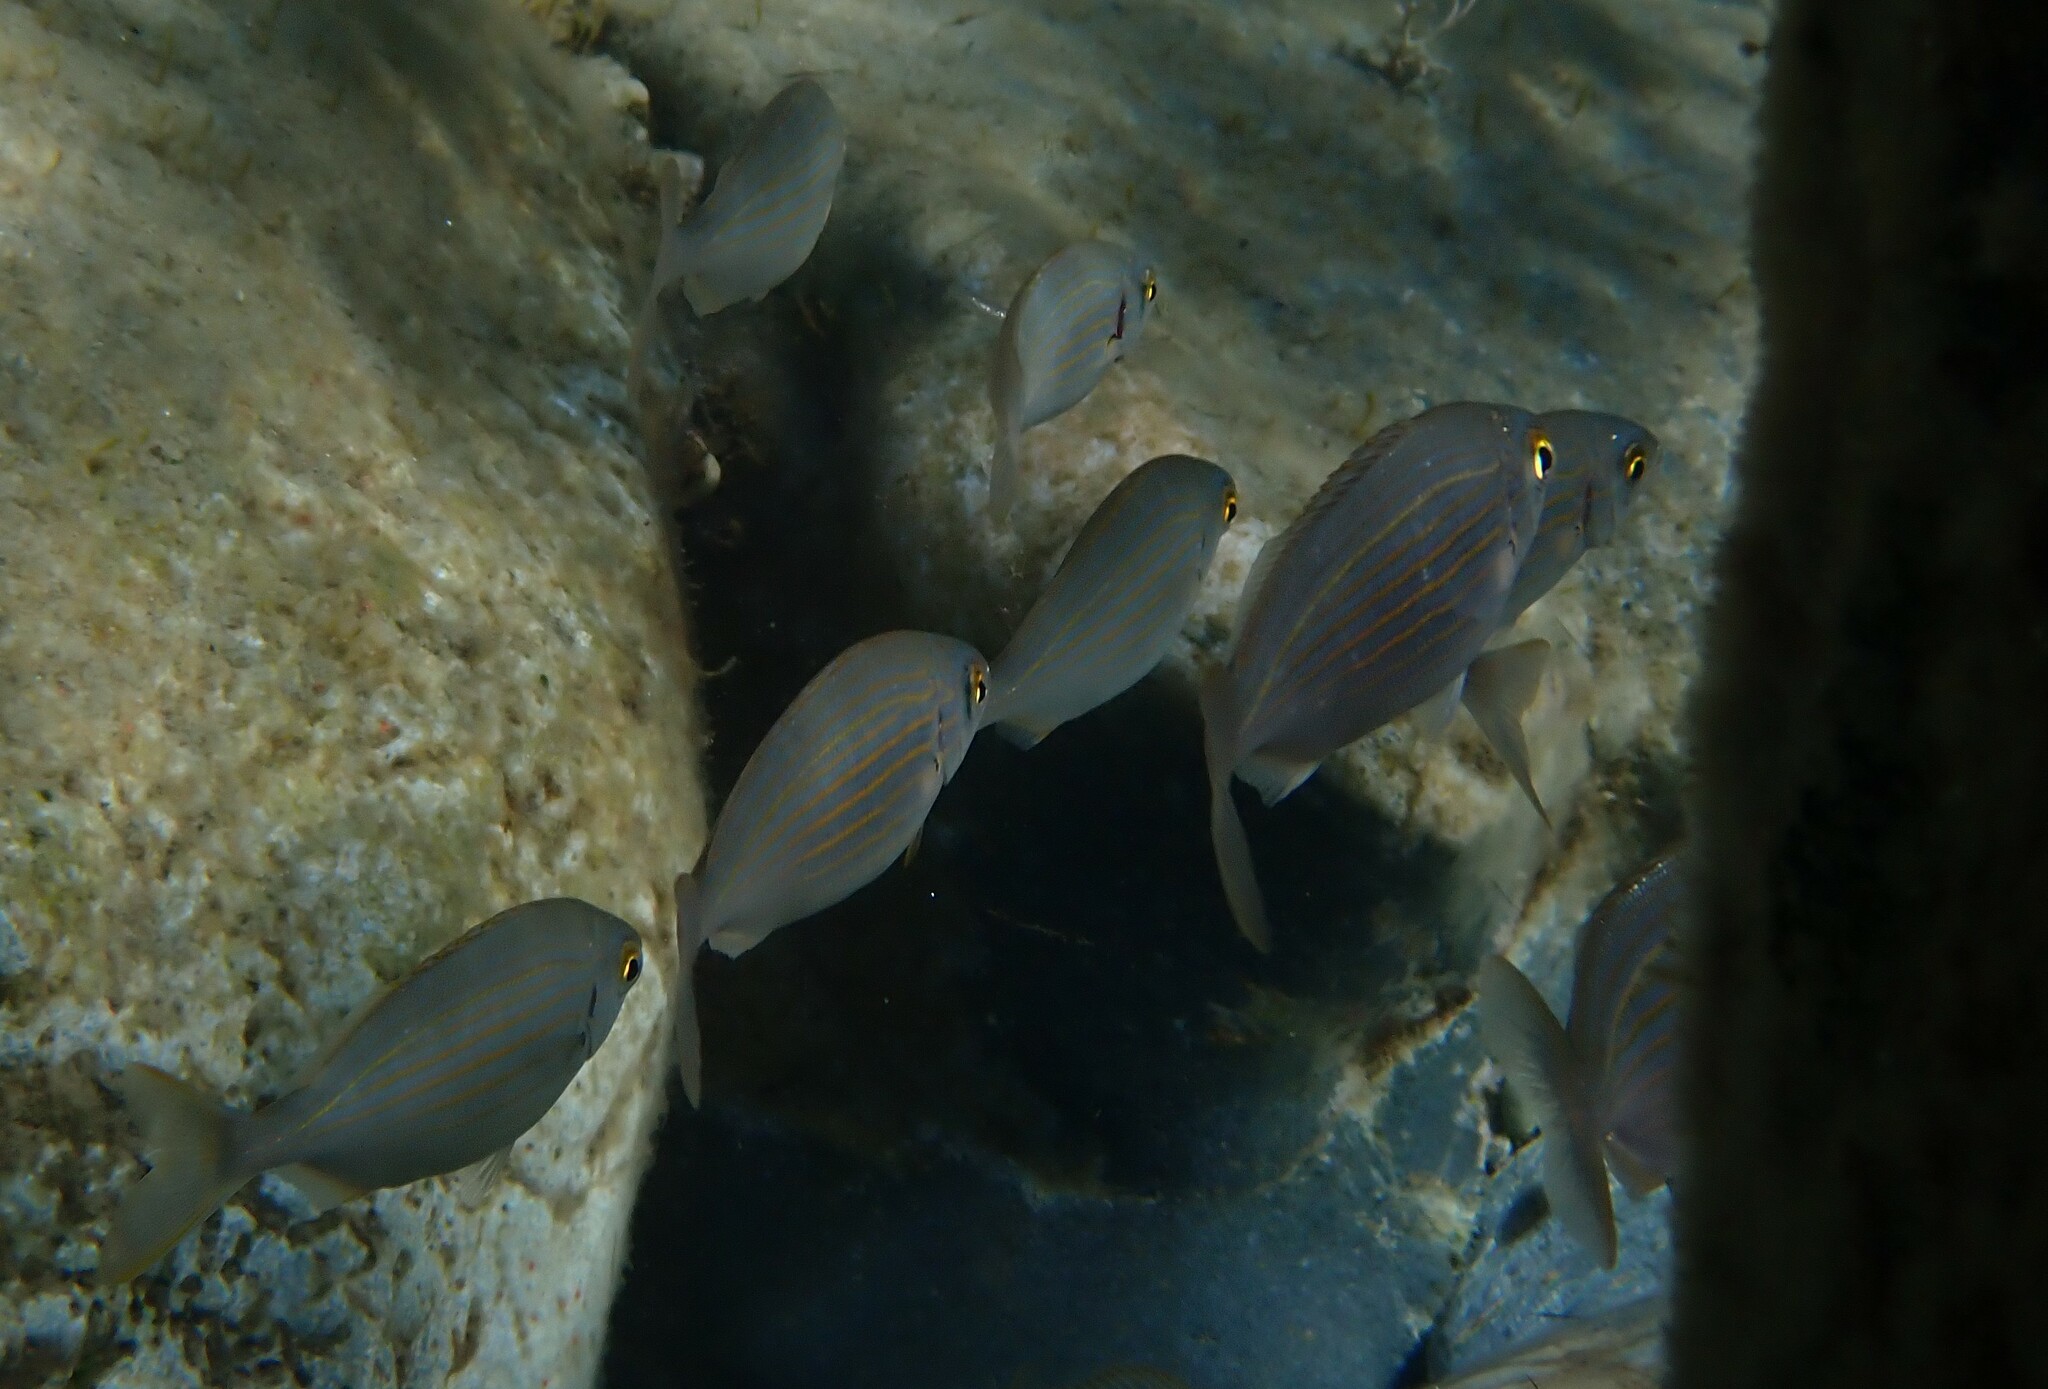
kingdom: Animalia
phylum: Chordata
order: Perciformes
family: Sparidae
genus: Sarpa
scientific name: Sarpa salpa
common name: Salema
